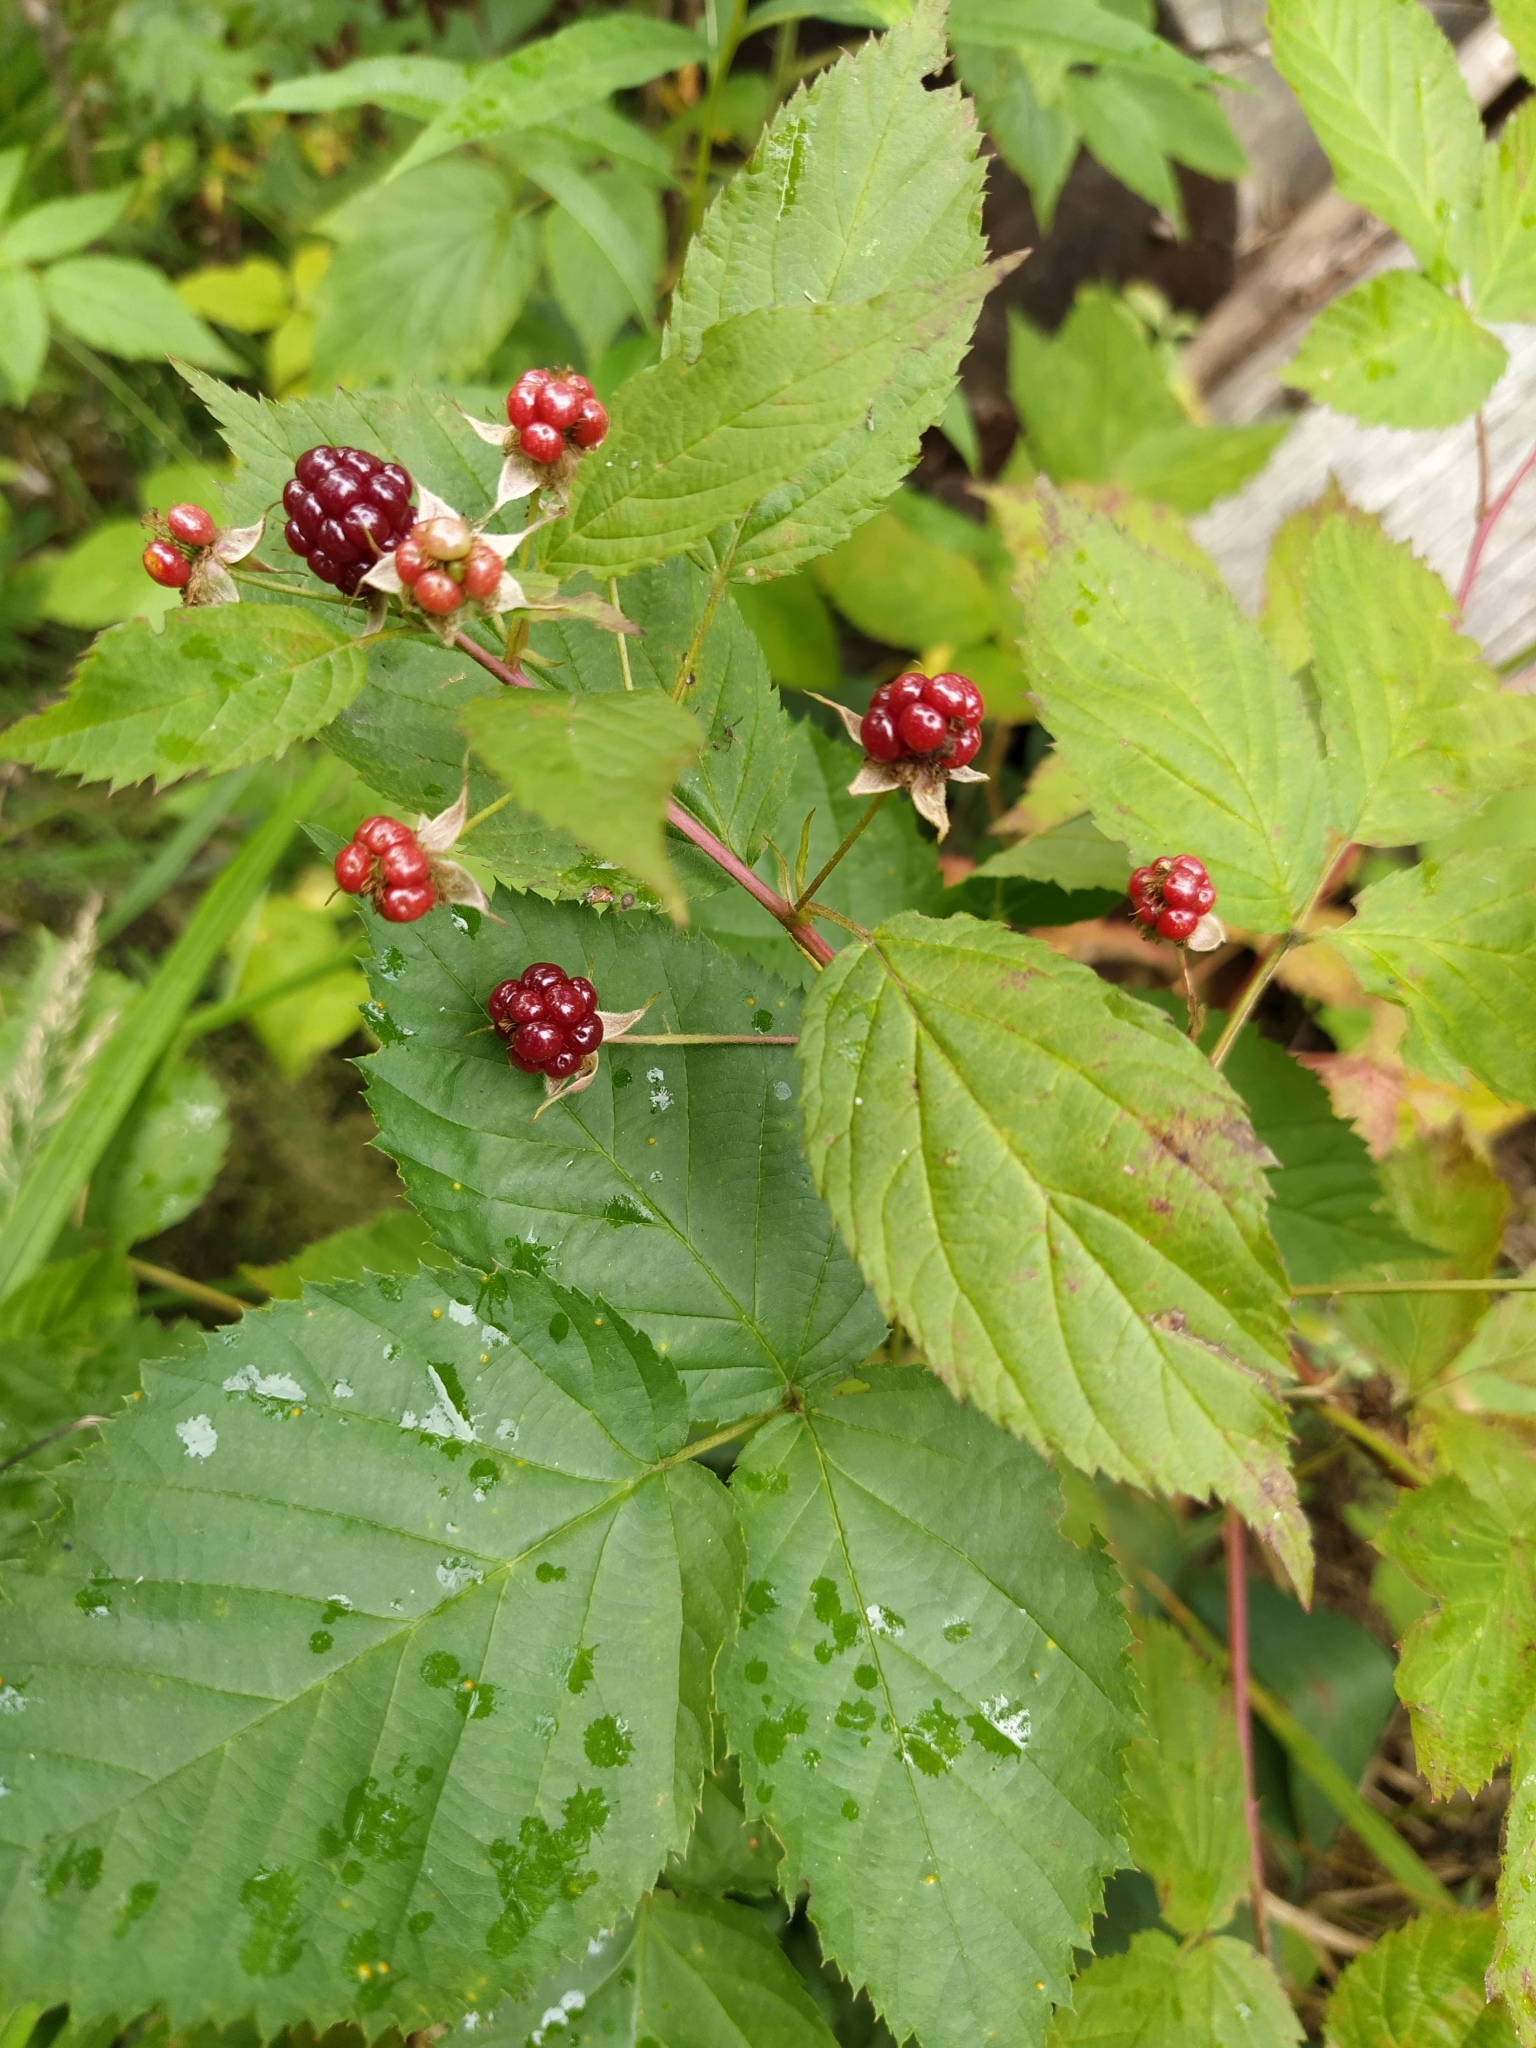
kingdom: Plantae
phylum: Tracheophyta
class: Magnoliopsida
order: Rosales
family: Rosaceae
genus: Rubus
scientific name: Rubus polonicus
